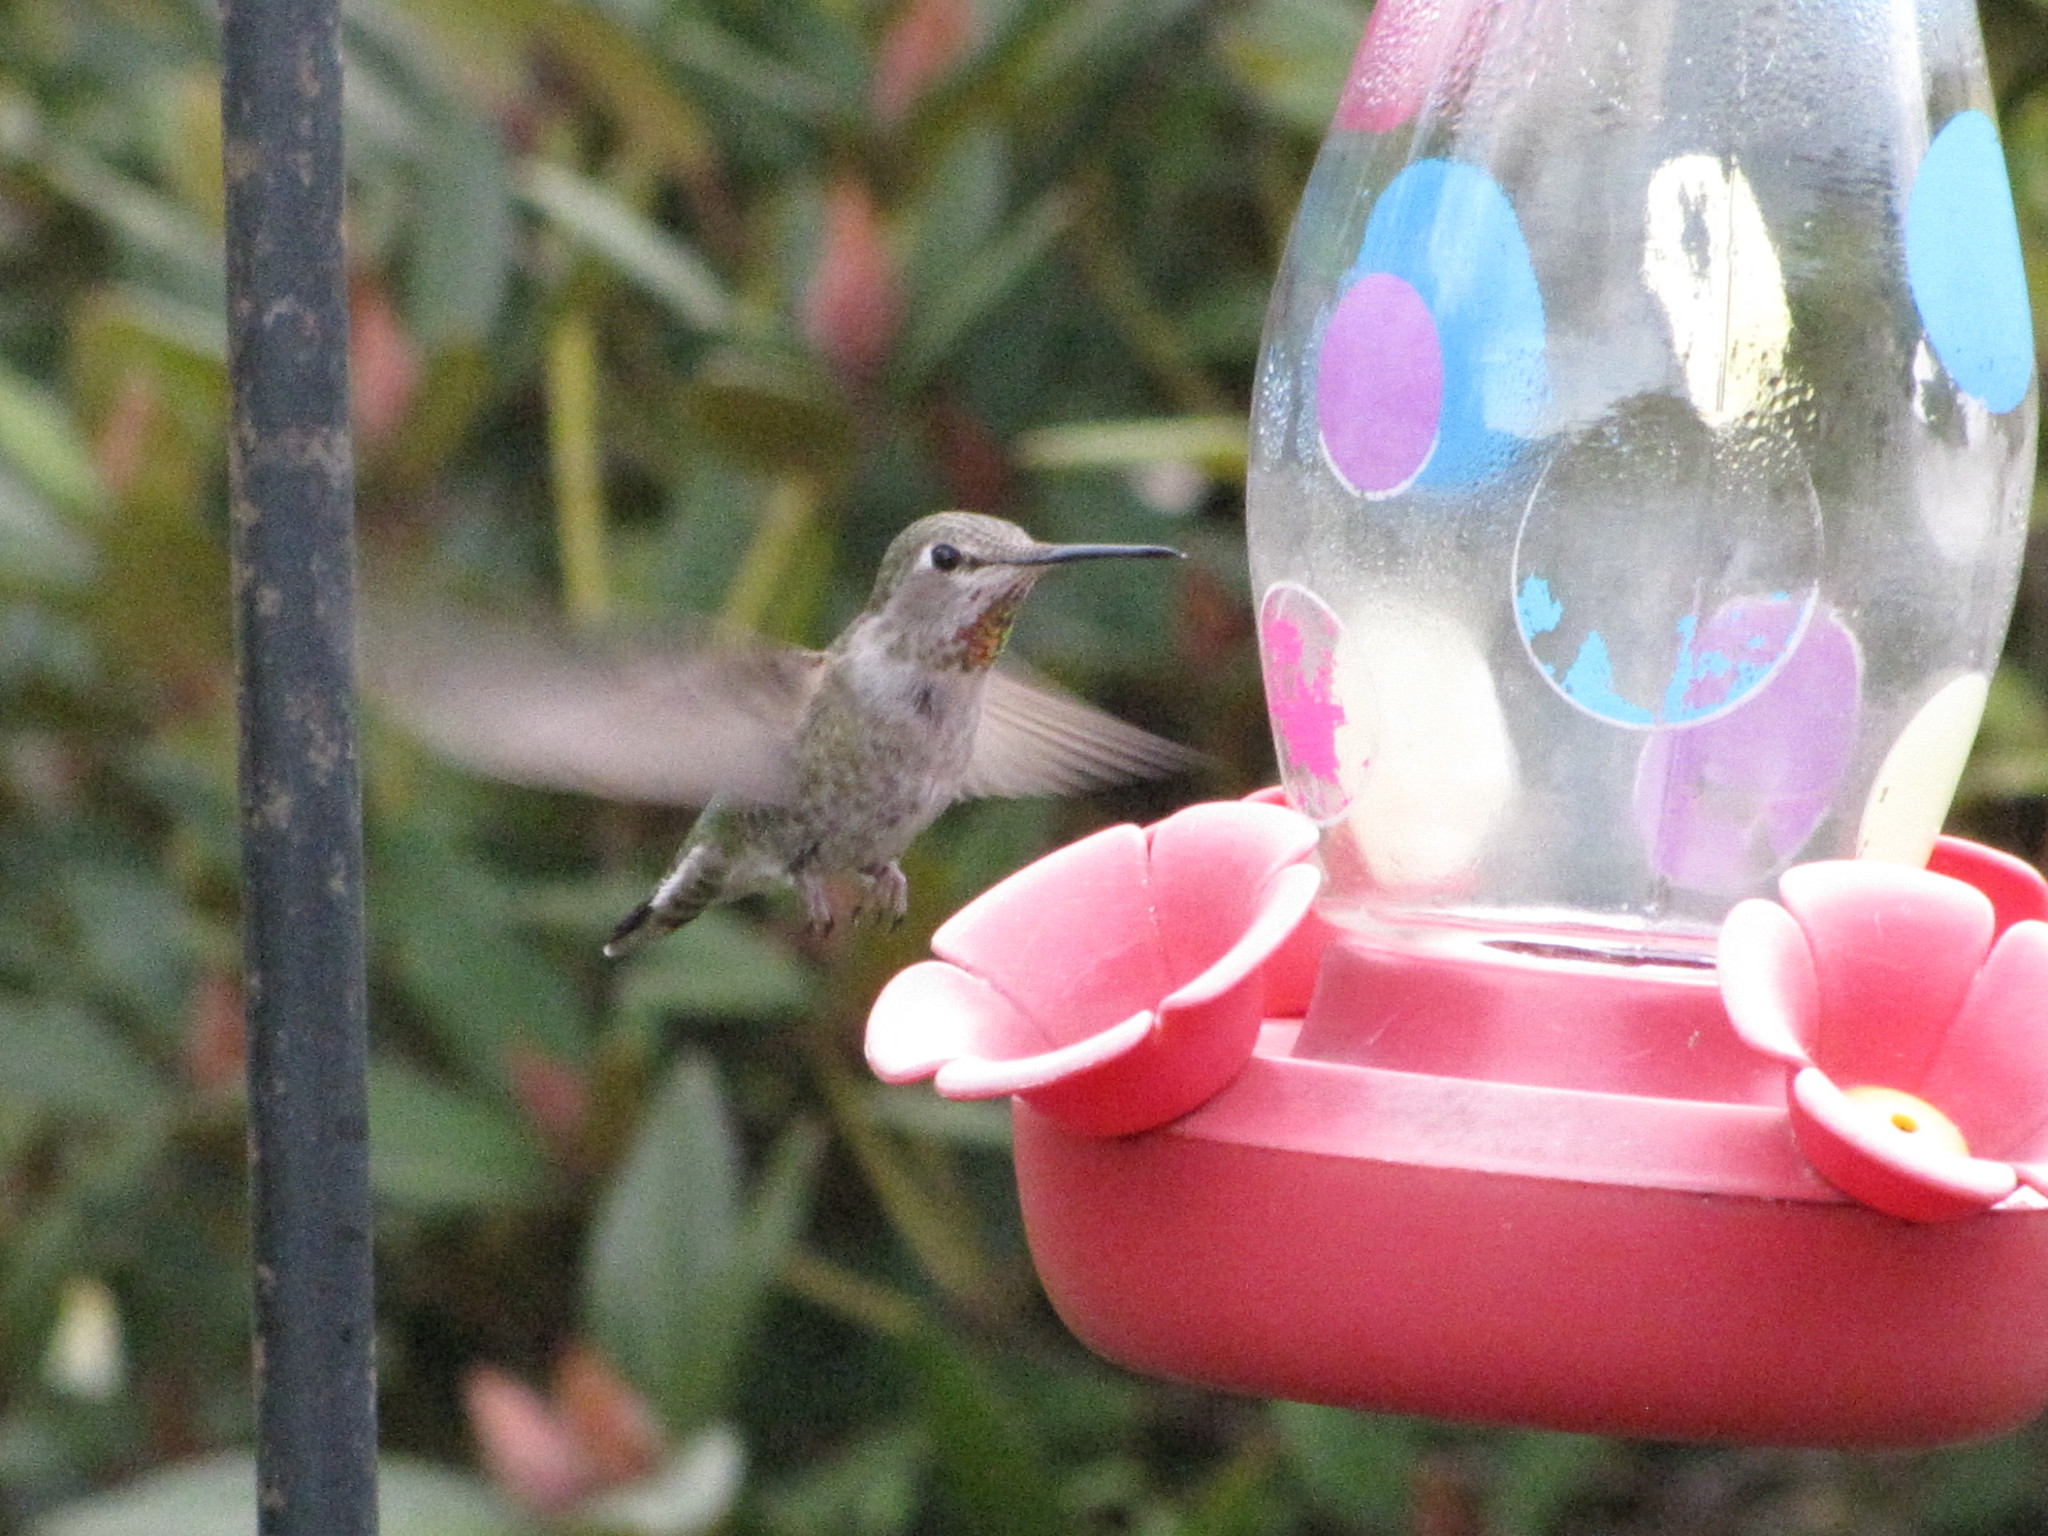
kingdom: Animalia
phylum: Chordata
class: Aves
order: Apodiformes
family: Trochilidae
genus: Calypte
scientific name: Calypte anna
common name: Anna's hummingbird
